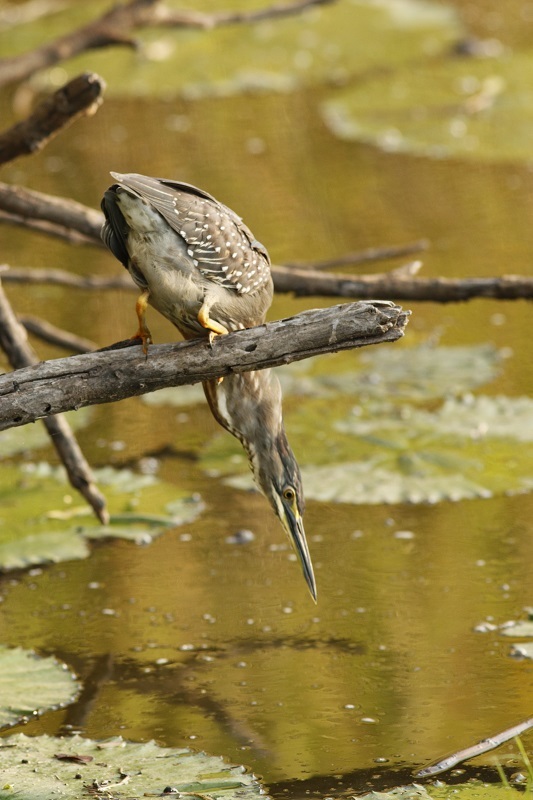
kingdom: Animalia
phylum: Chordata
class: Aves
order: Pelecaniformes
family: Ardeidae
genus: Butorides
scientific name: Butorides striata
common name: Striated heron
